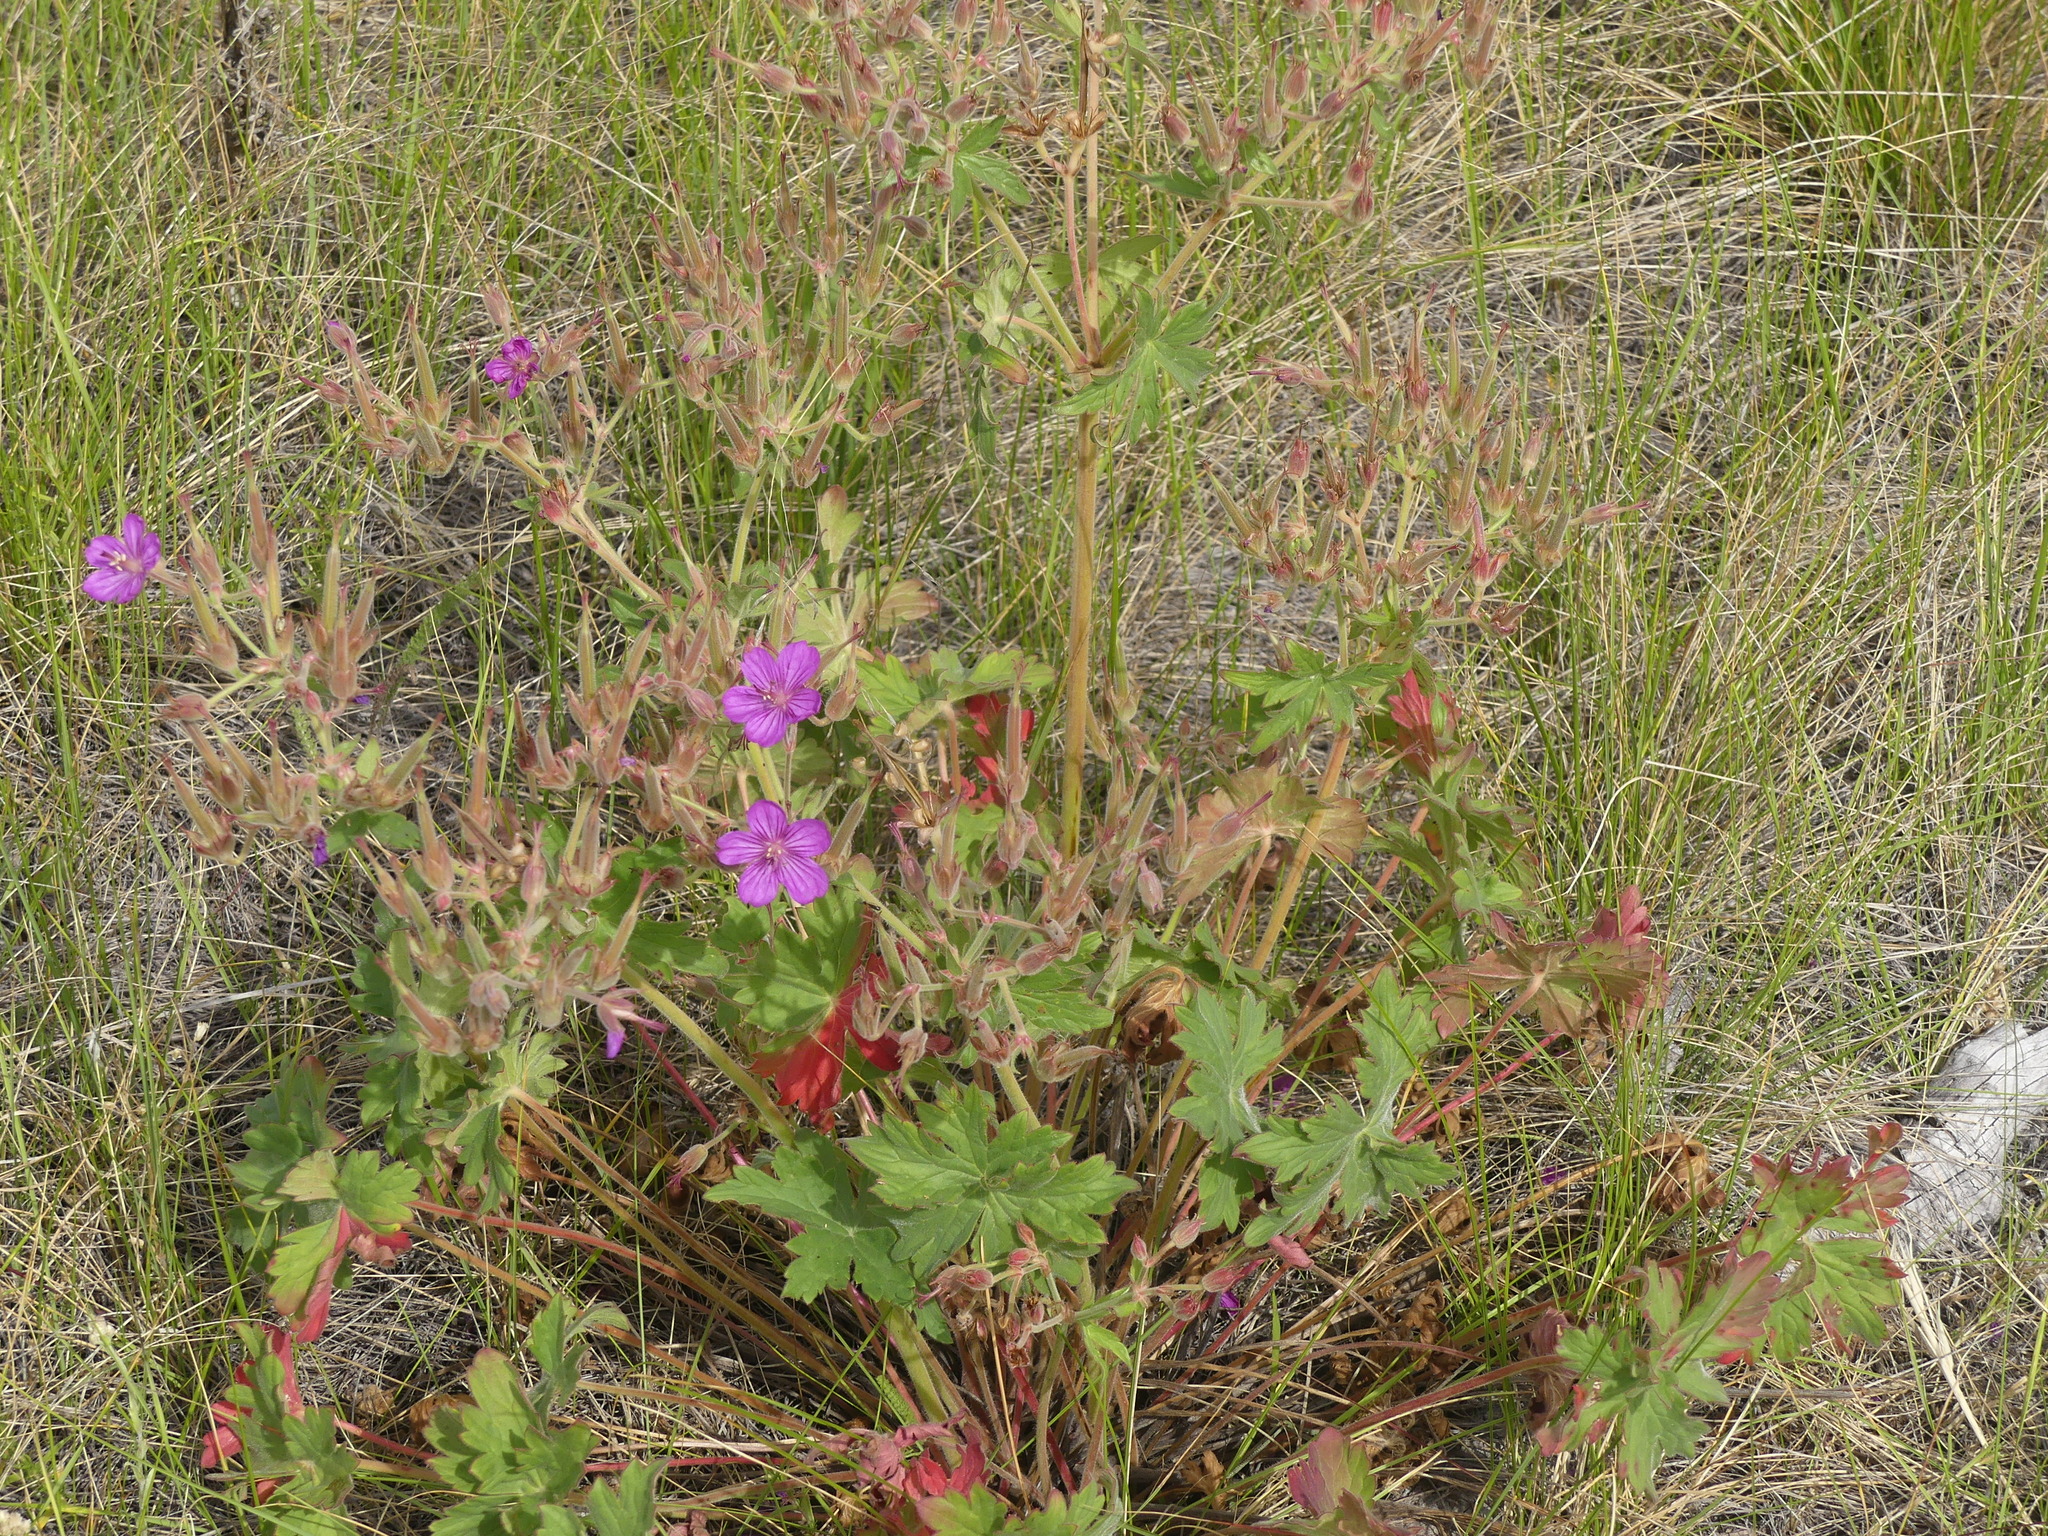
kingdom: Plantae
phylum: Tracheophyta
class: Magnoliopsida
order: Geraniales
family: Geraniaceae
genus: Geranium
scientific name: Geranium viscosissimum
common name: Purple geranium
